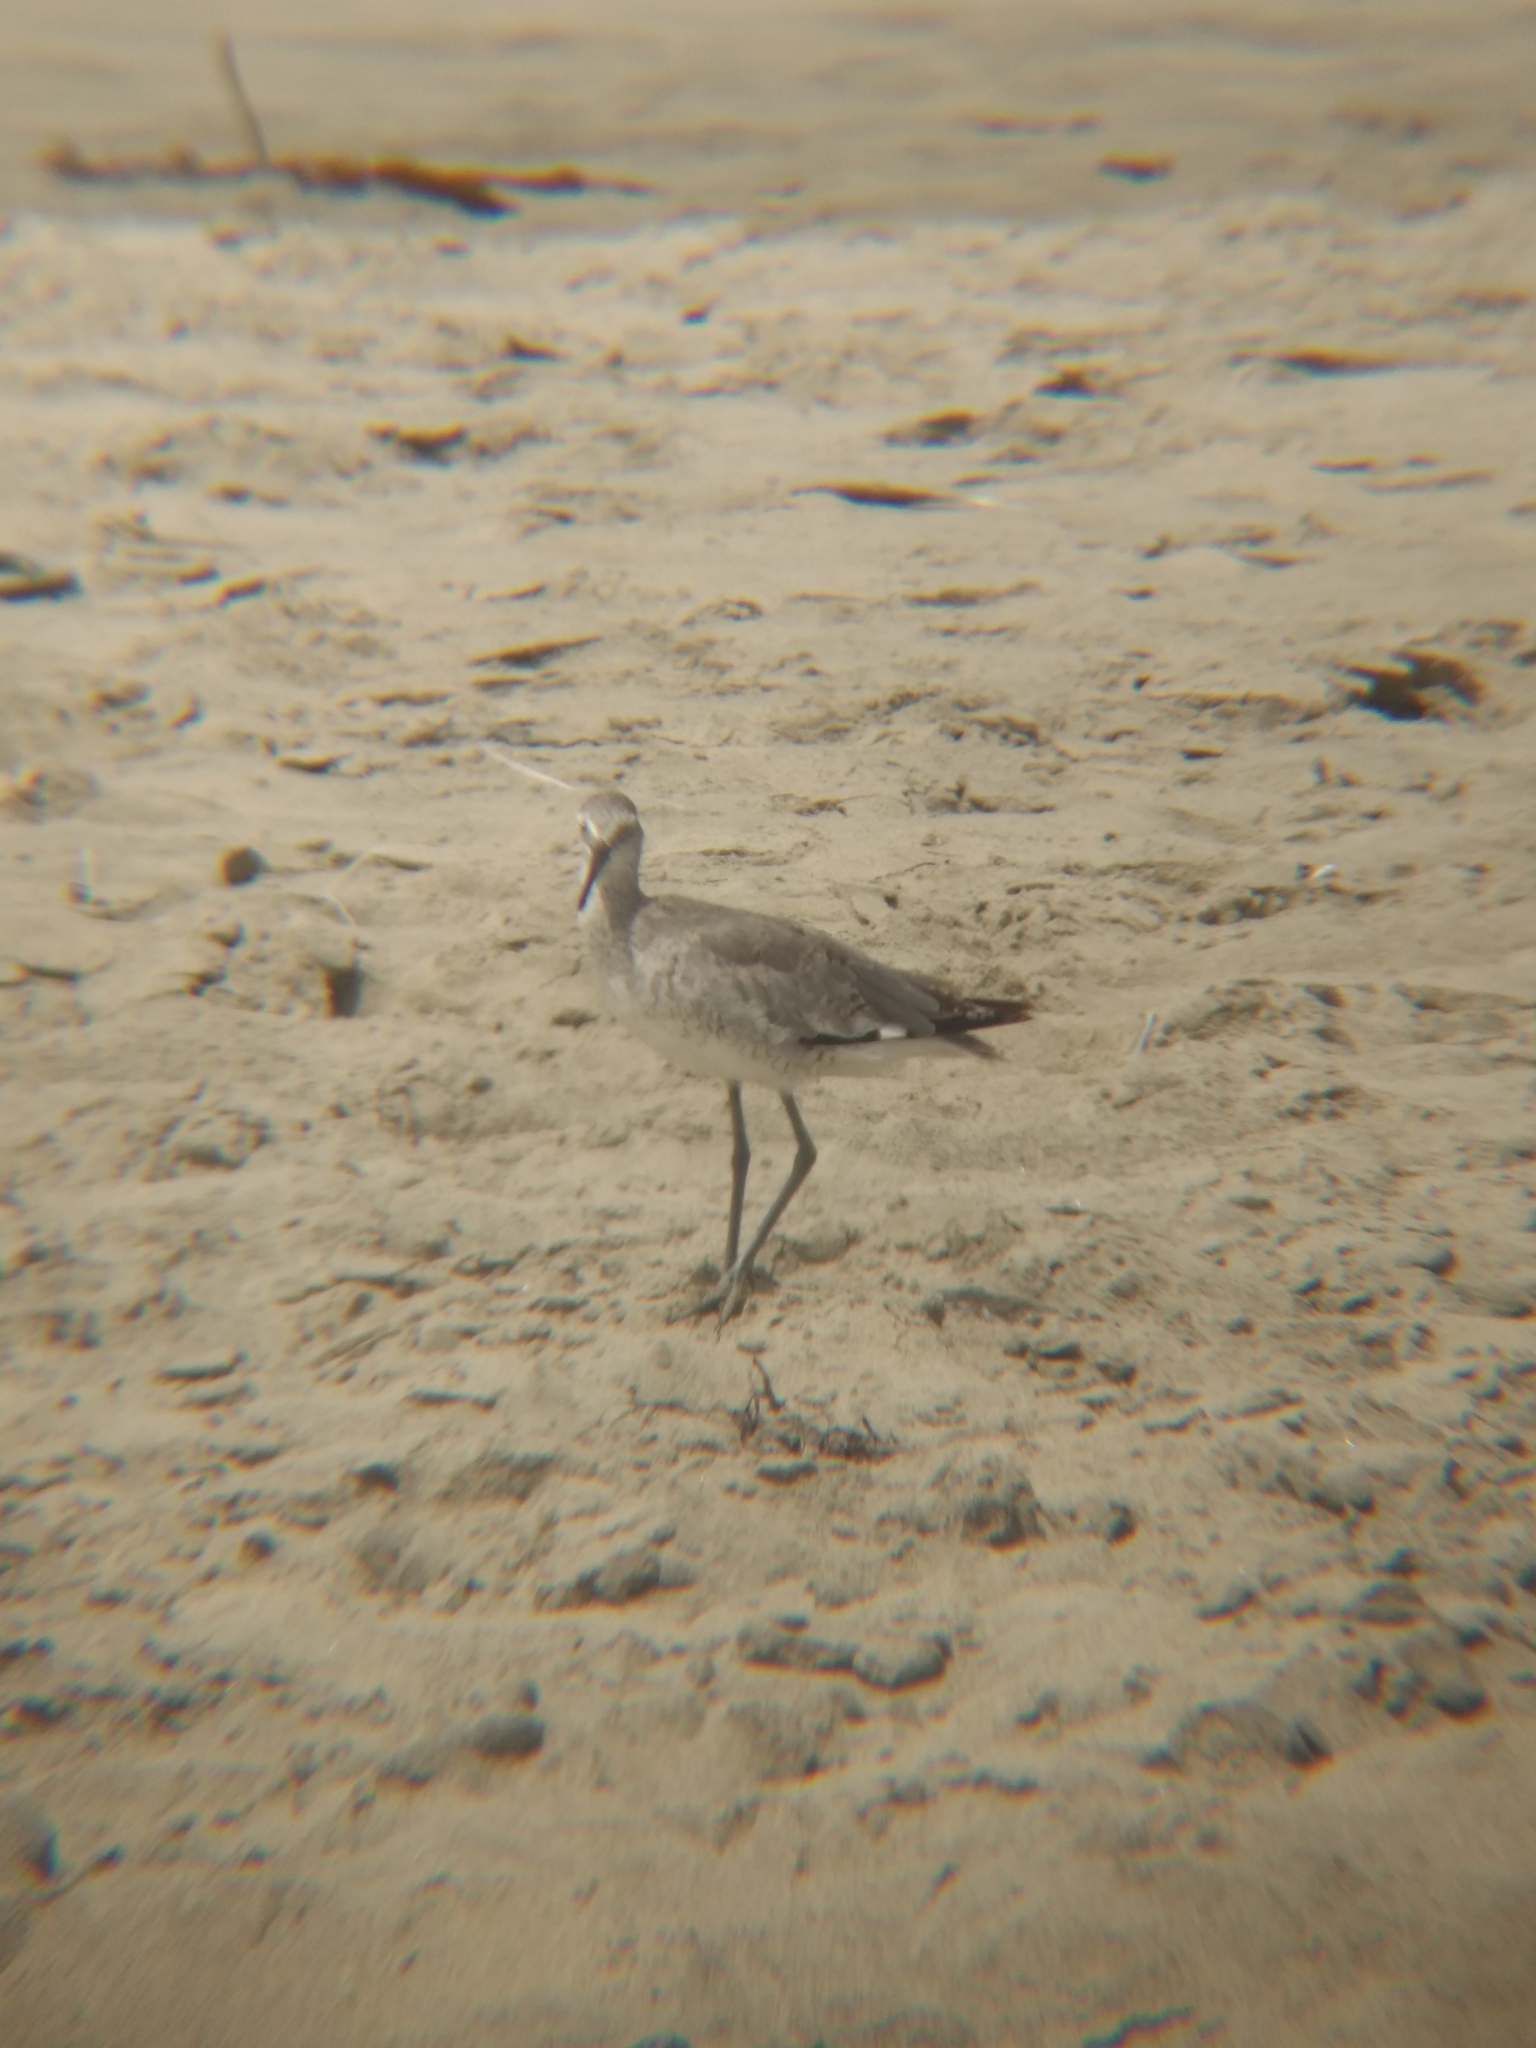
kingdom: Animalia
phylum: Chordata
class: Aves
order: Charadriiformes
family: Scolopacidae
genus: Tringa
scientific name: Tringa semipalmata
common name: Willet
